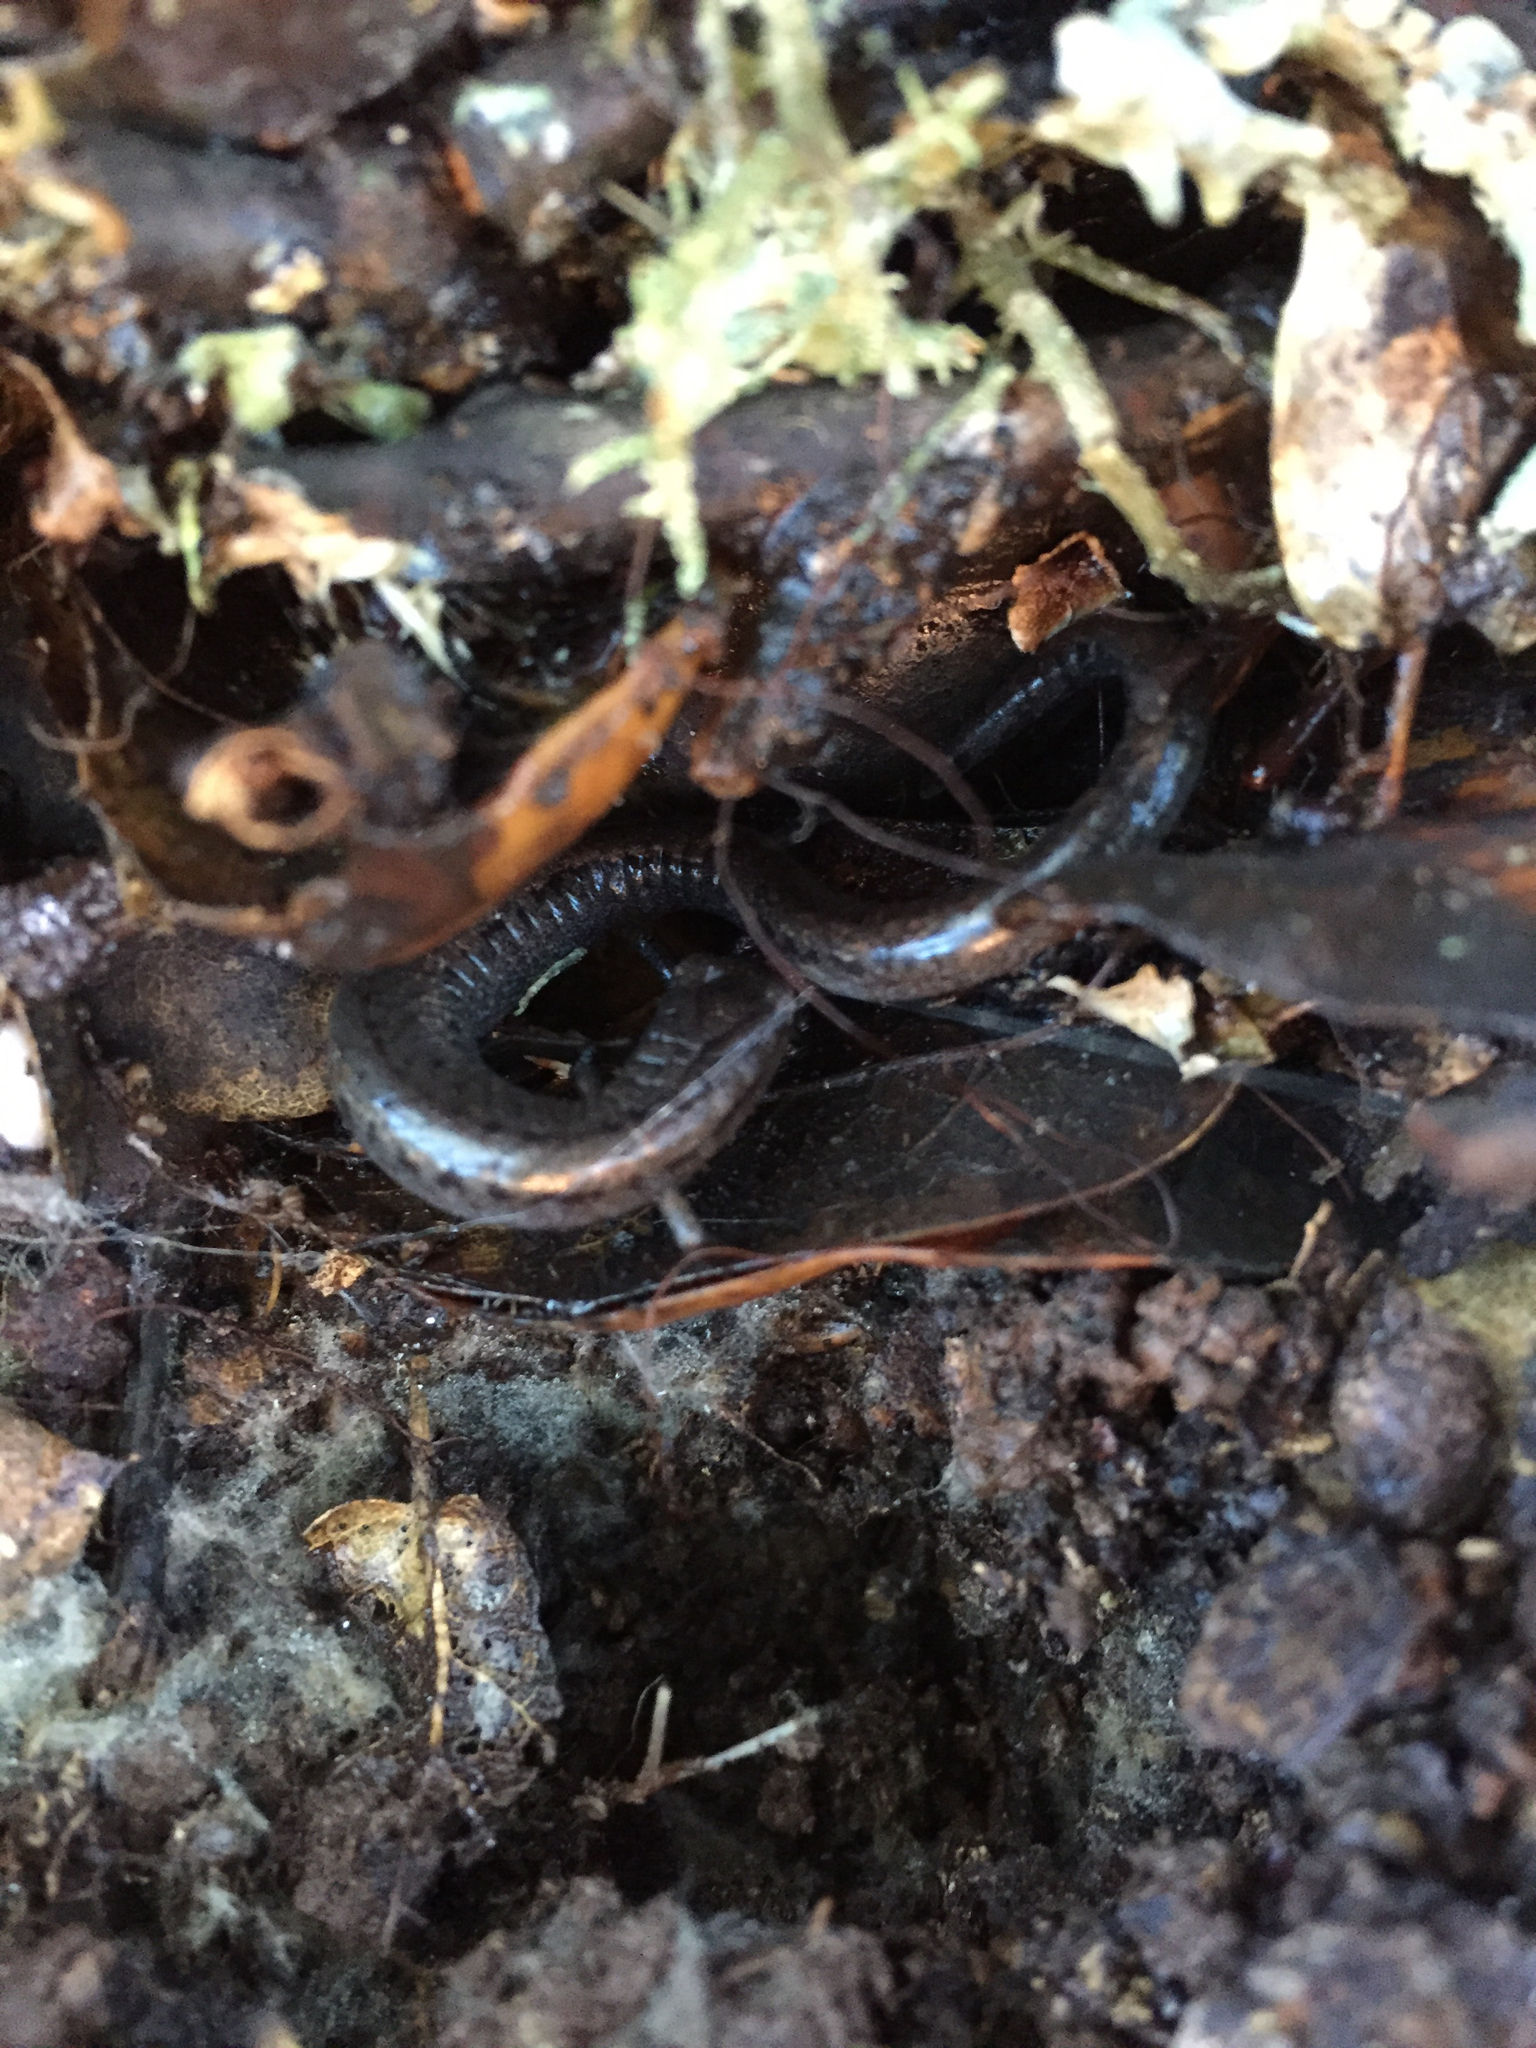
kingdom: Animalia
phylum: Chordata
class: Amphibia
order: Caudata
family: Plethodontidae
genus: Batrachoseps
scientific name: Batrachoseps attenuatus
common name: California slender salamander
